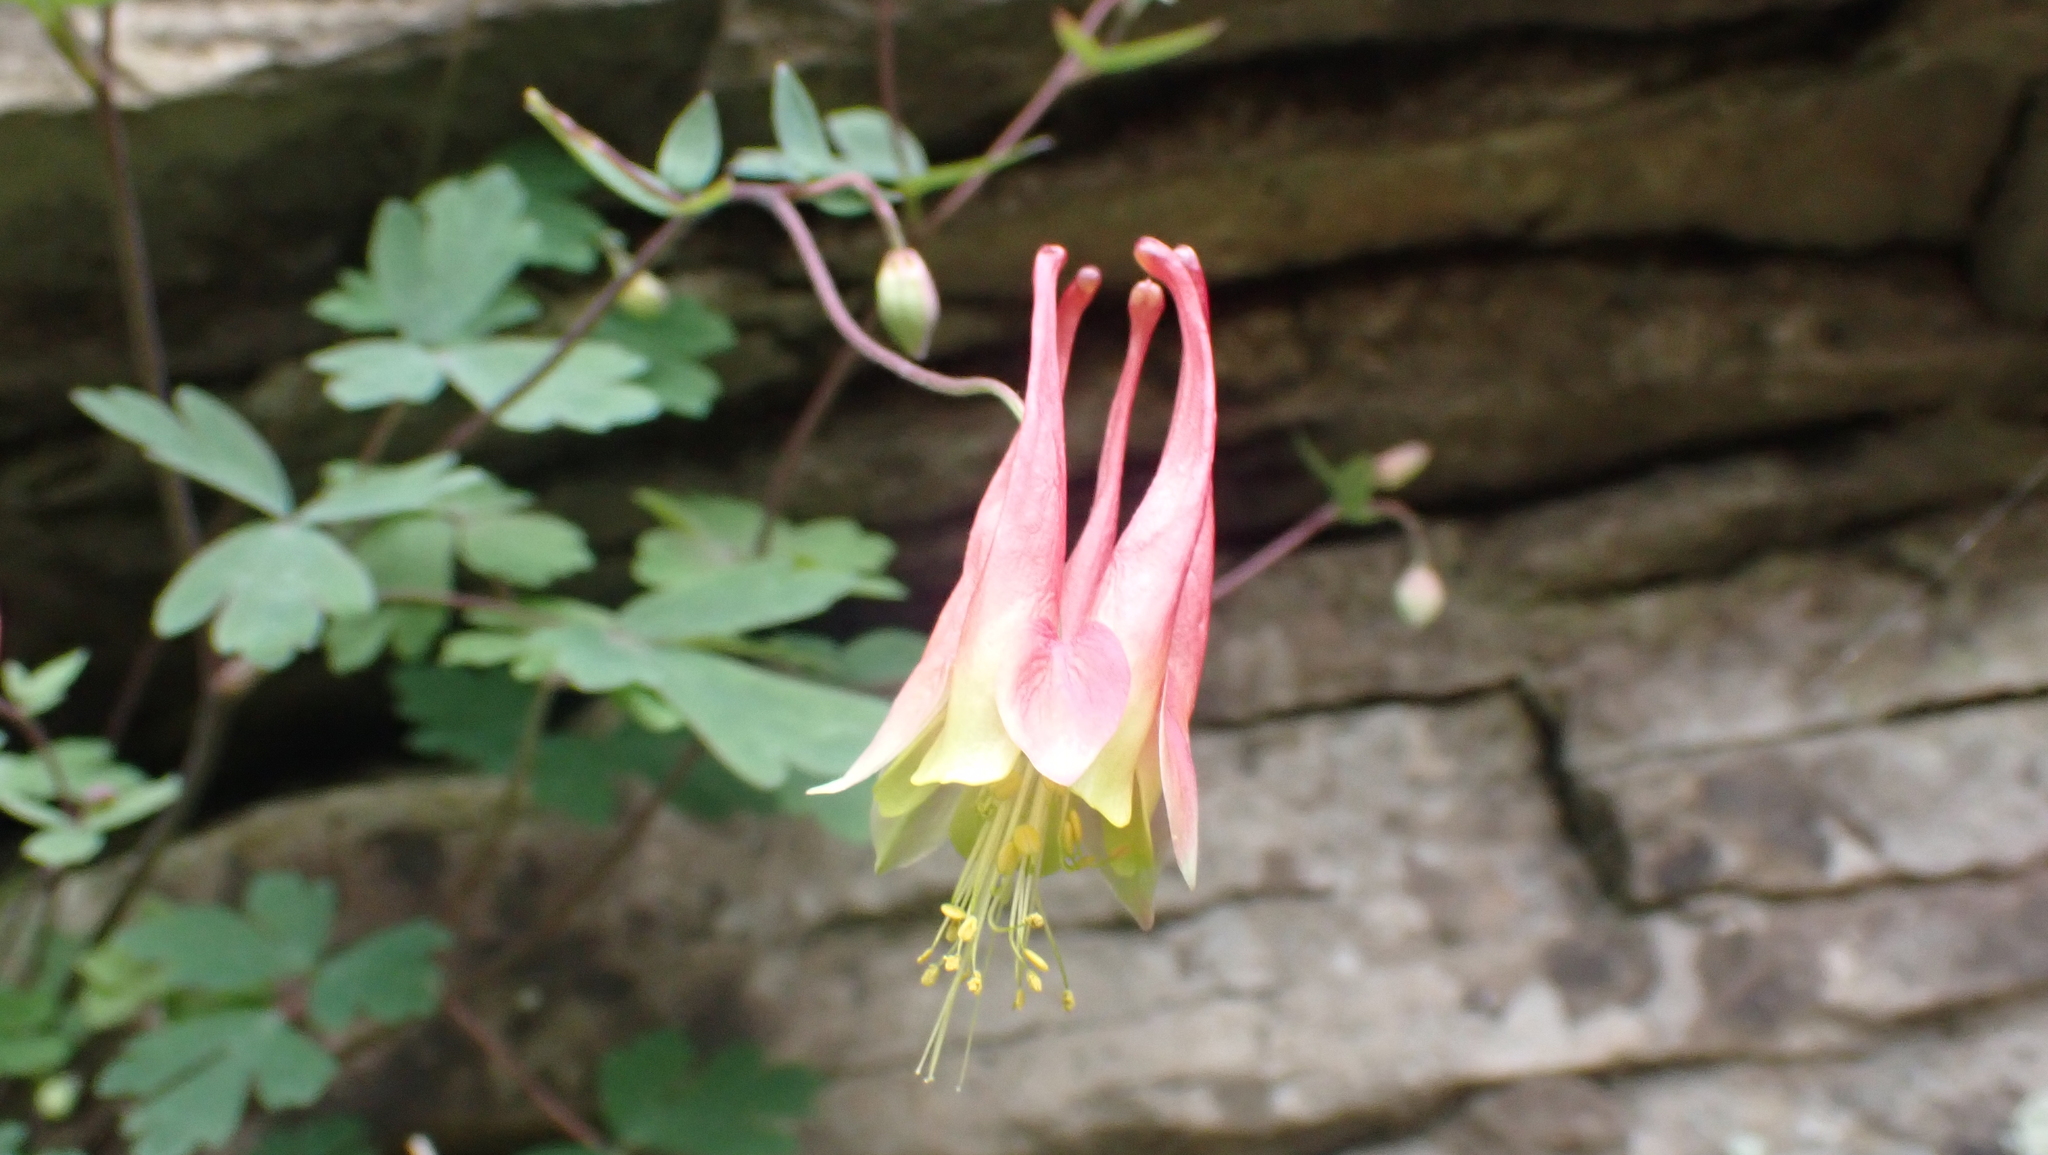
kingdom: Plantae
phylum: Tracheophyta
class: Magnoliopsida
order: Ranunculales
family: Ranunculaceae
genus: Aquilegia
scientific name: Aquilegia canadensis
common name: American columbine
